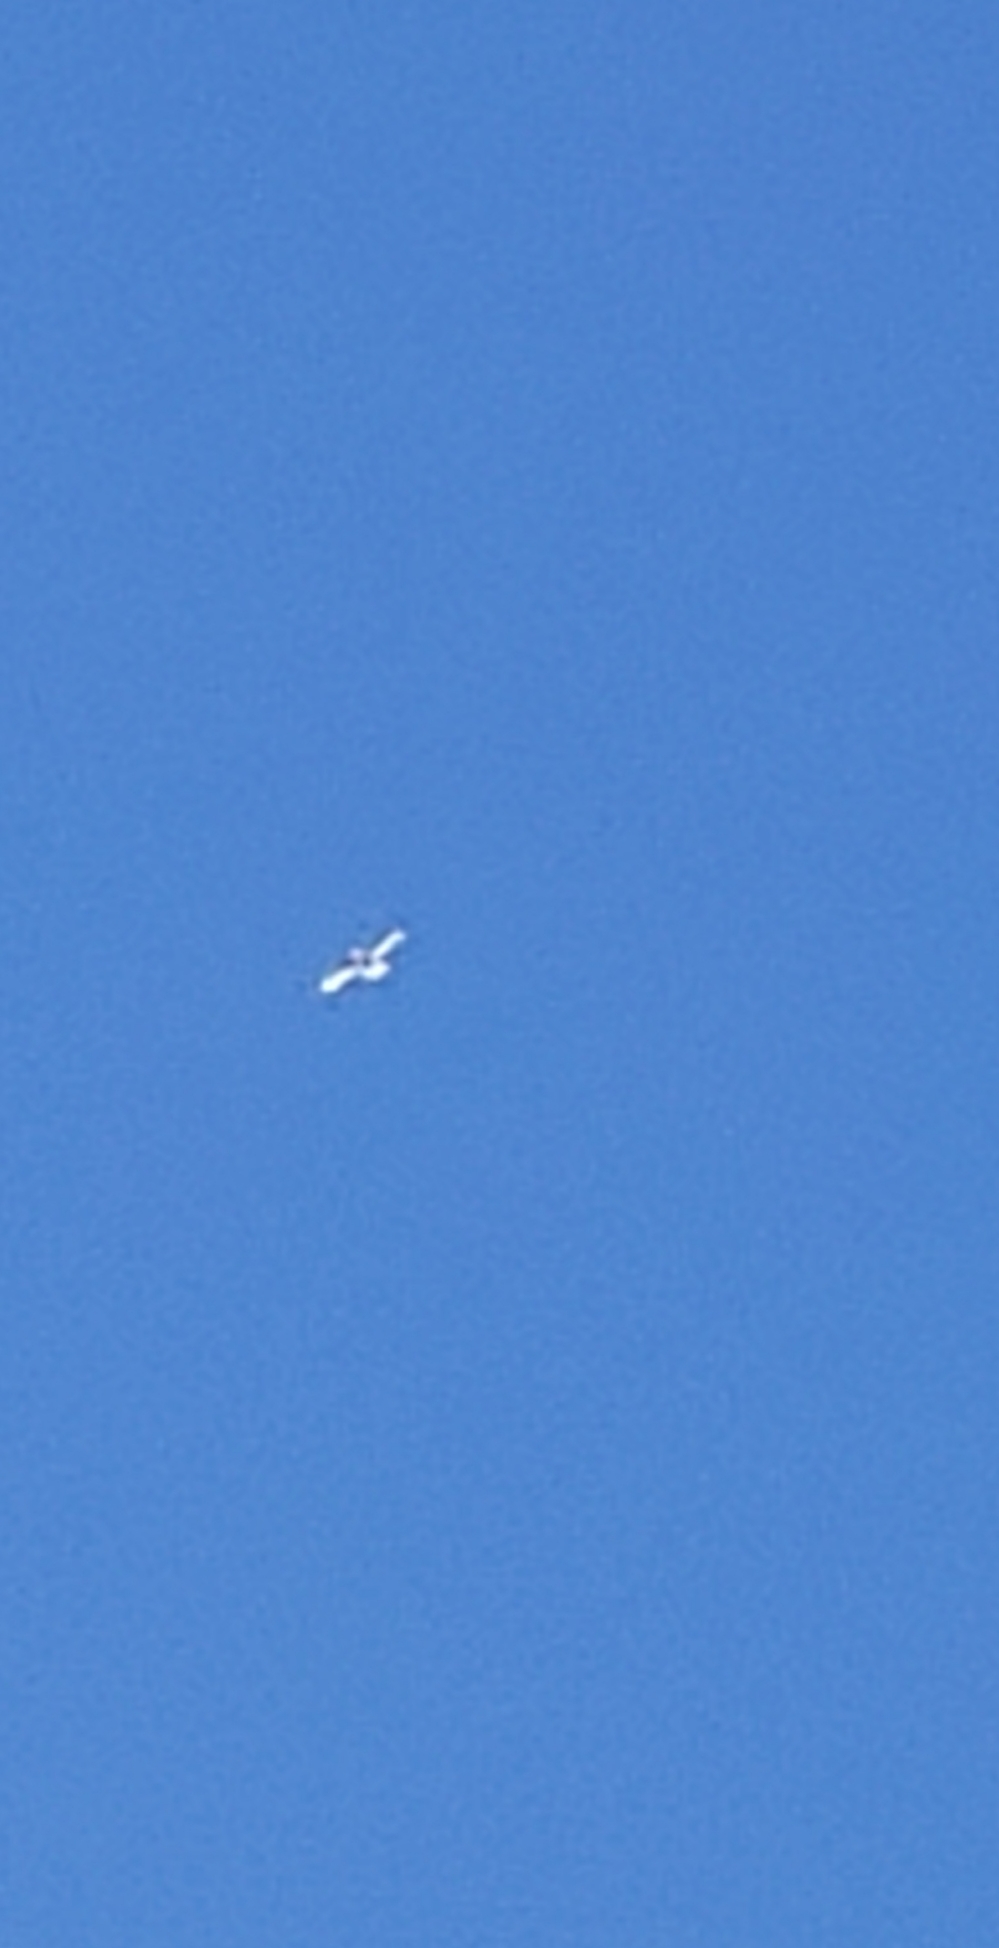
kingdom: Animalia
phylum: Chordata
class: Aves
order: Charadriiformes
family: Laridae
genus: Larus
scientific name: Larus
